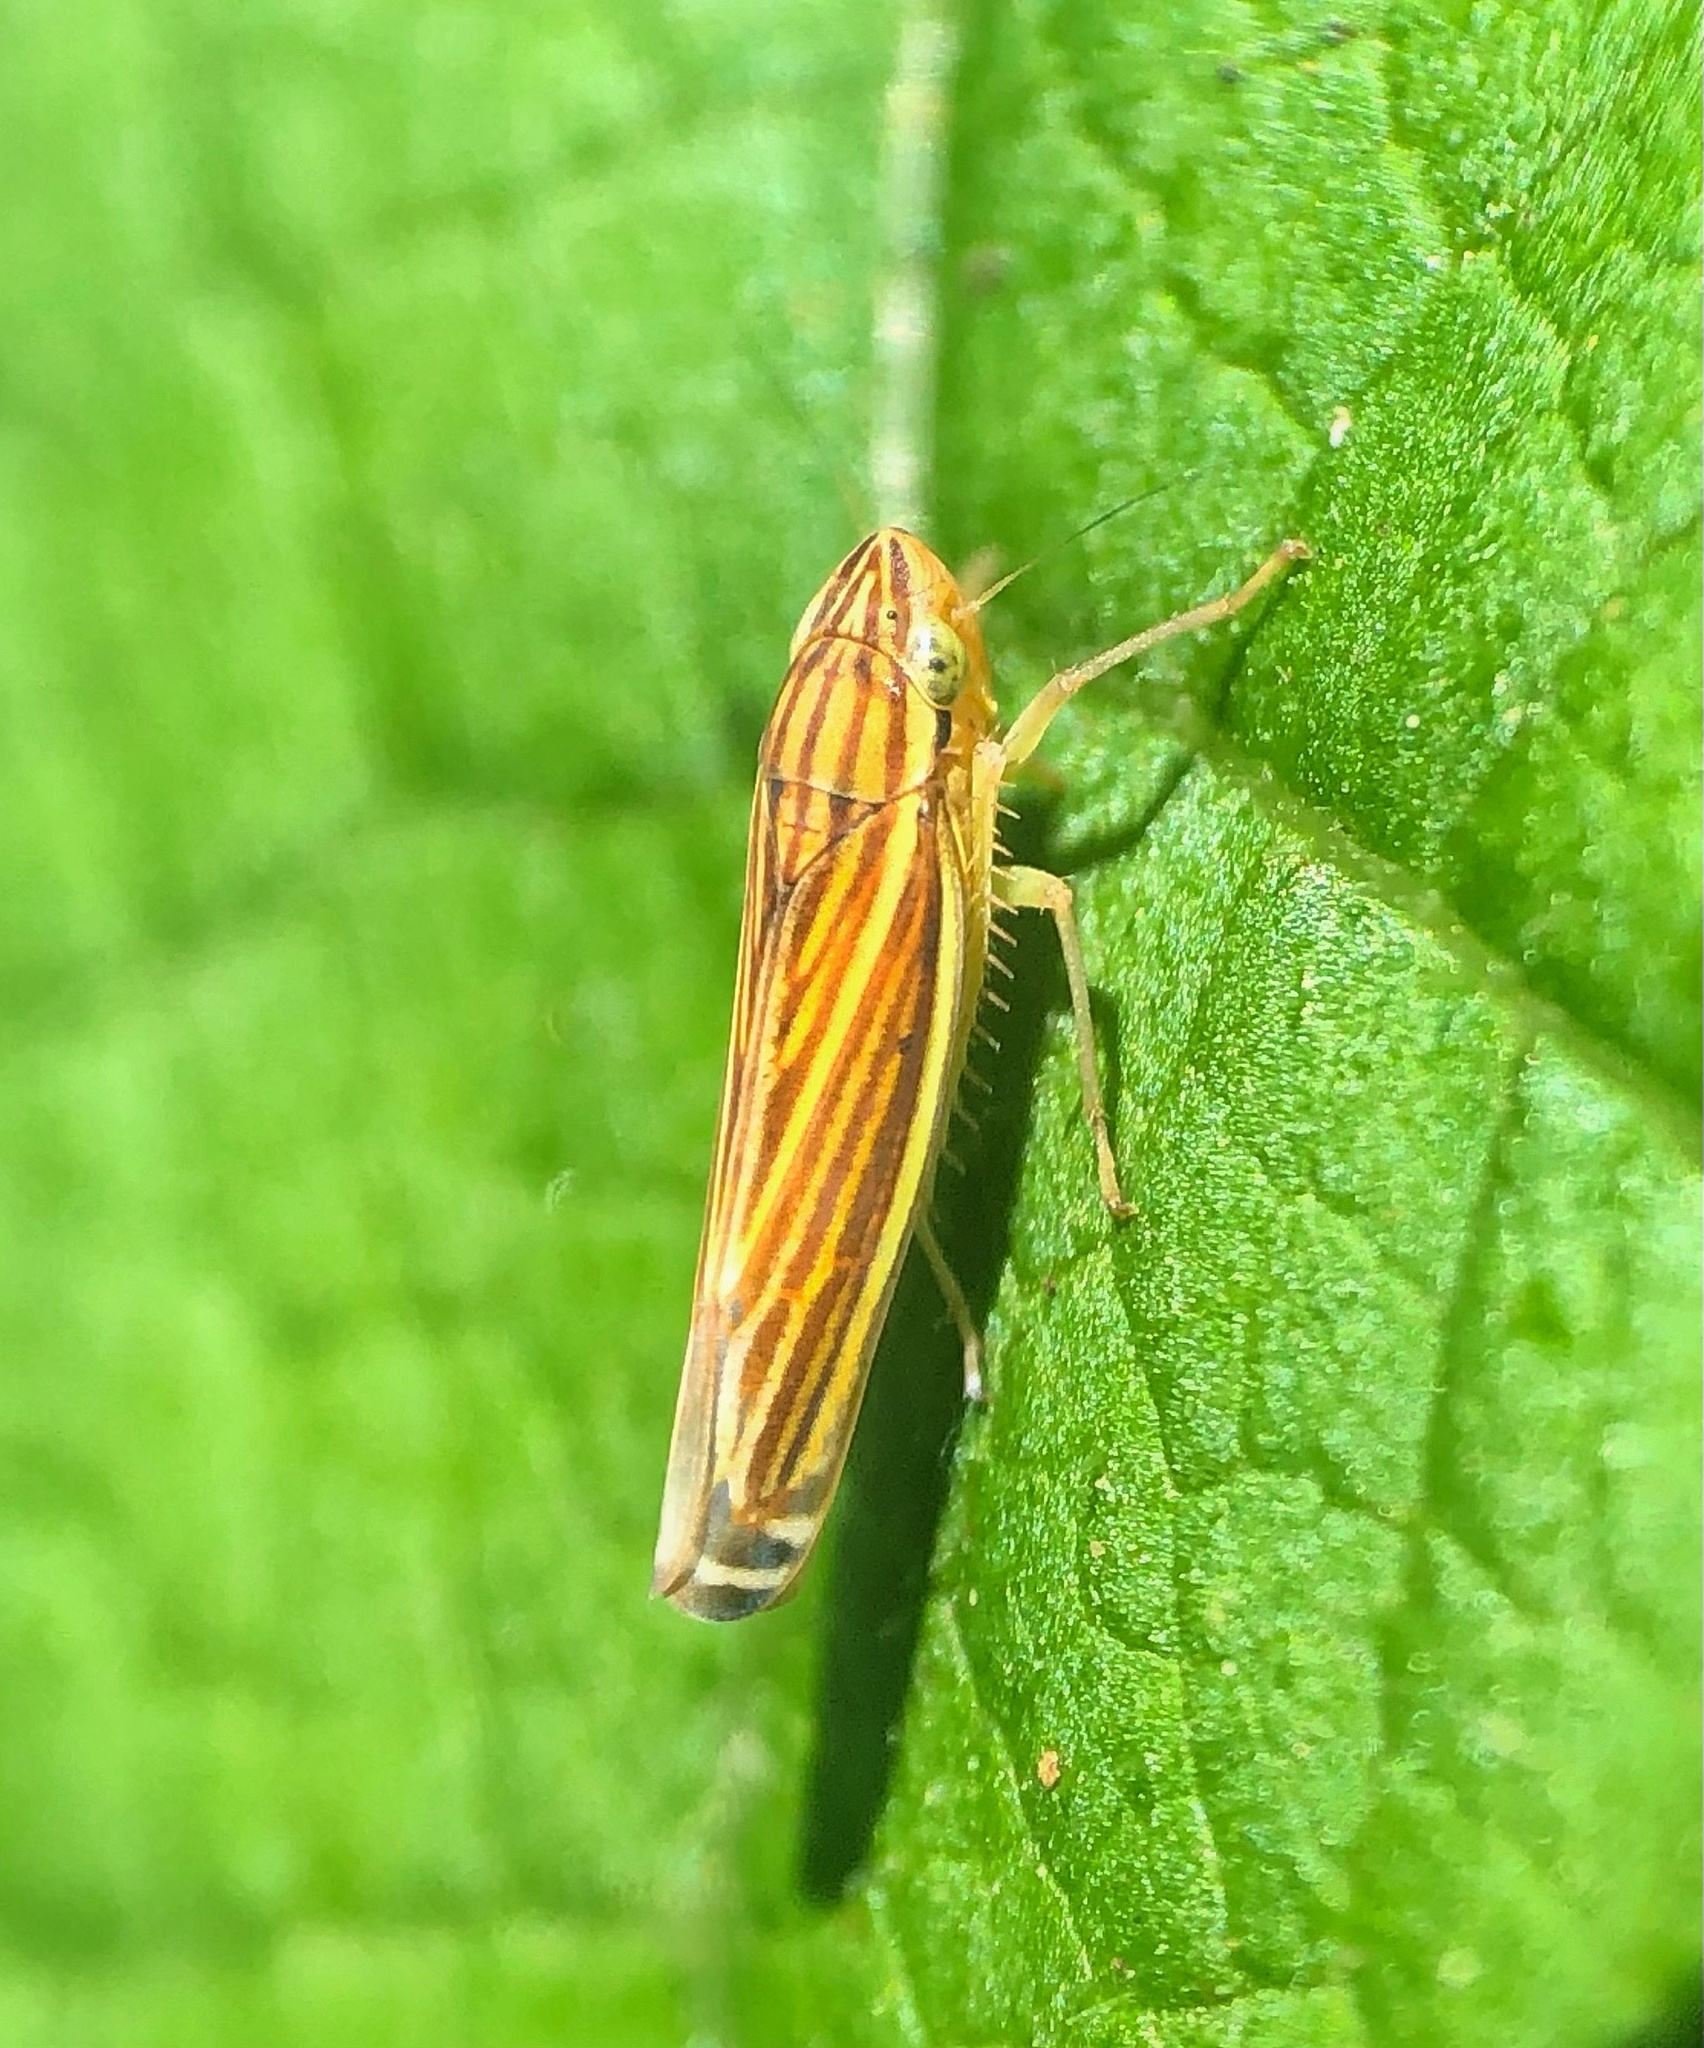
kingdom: Animalia
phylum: Arthropoda
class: Insecta
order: Hemiptera
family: Cicadellidae
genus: Sibovia
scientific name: Sibovia occatoria
